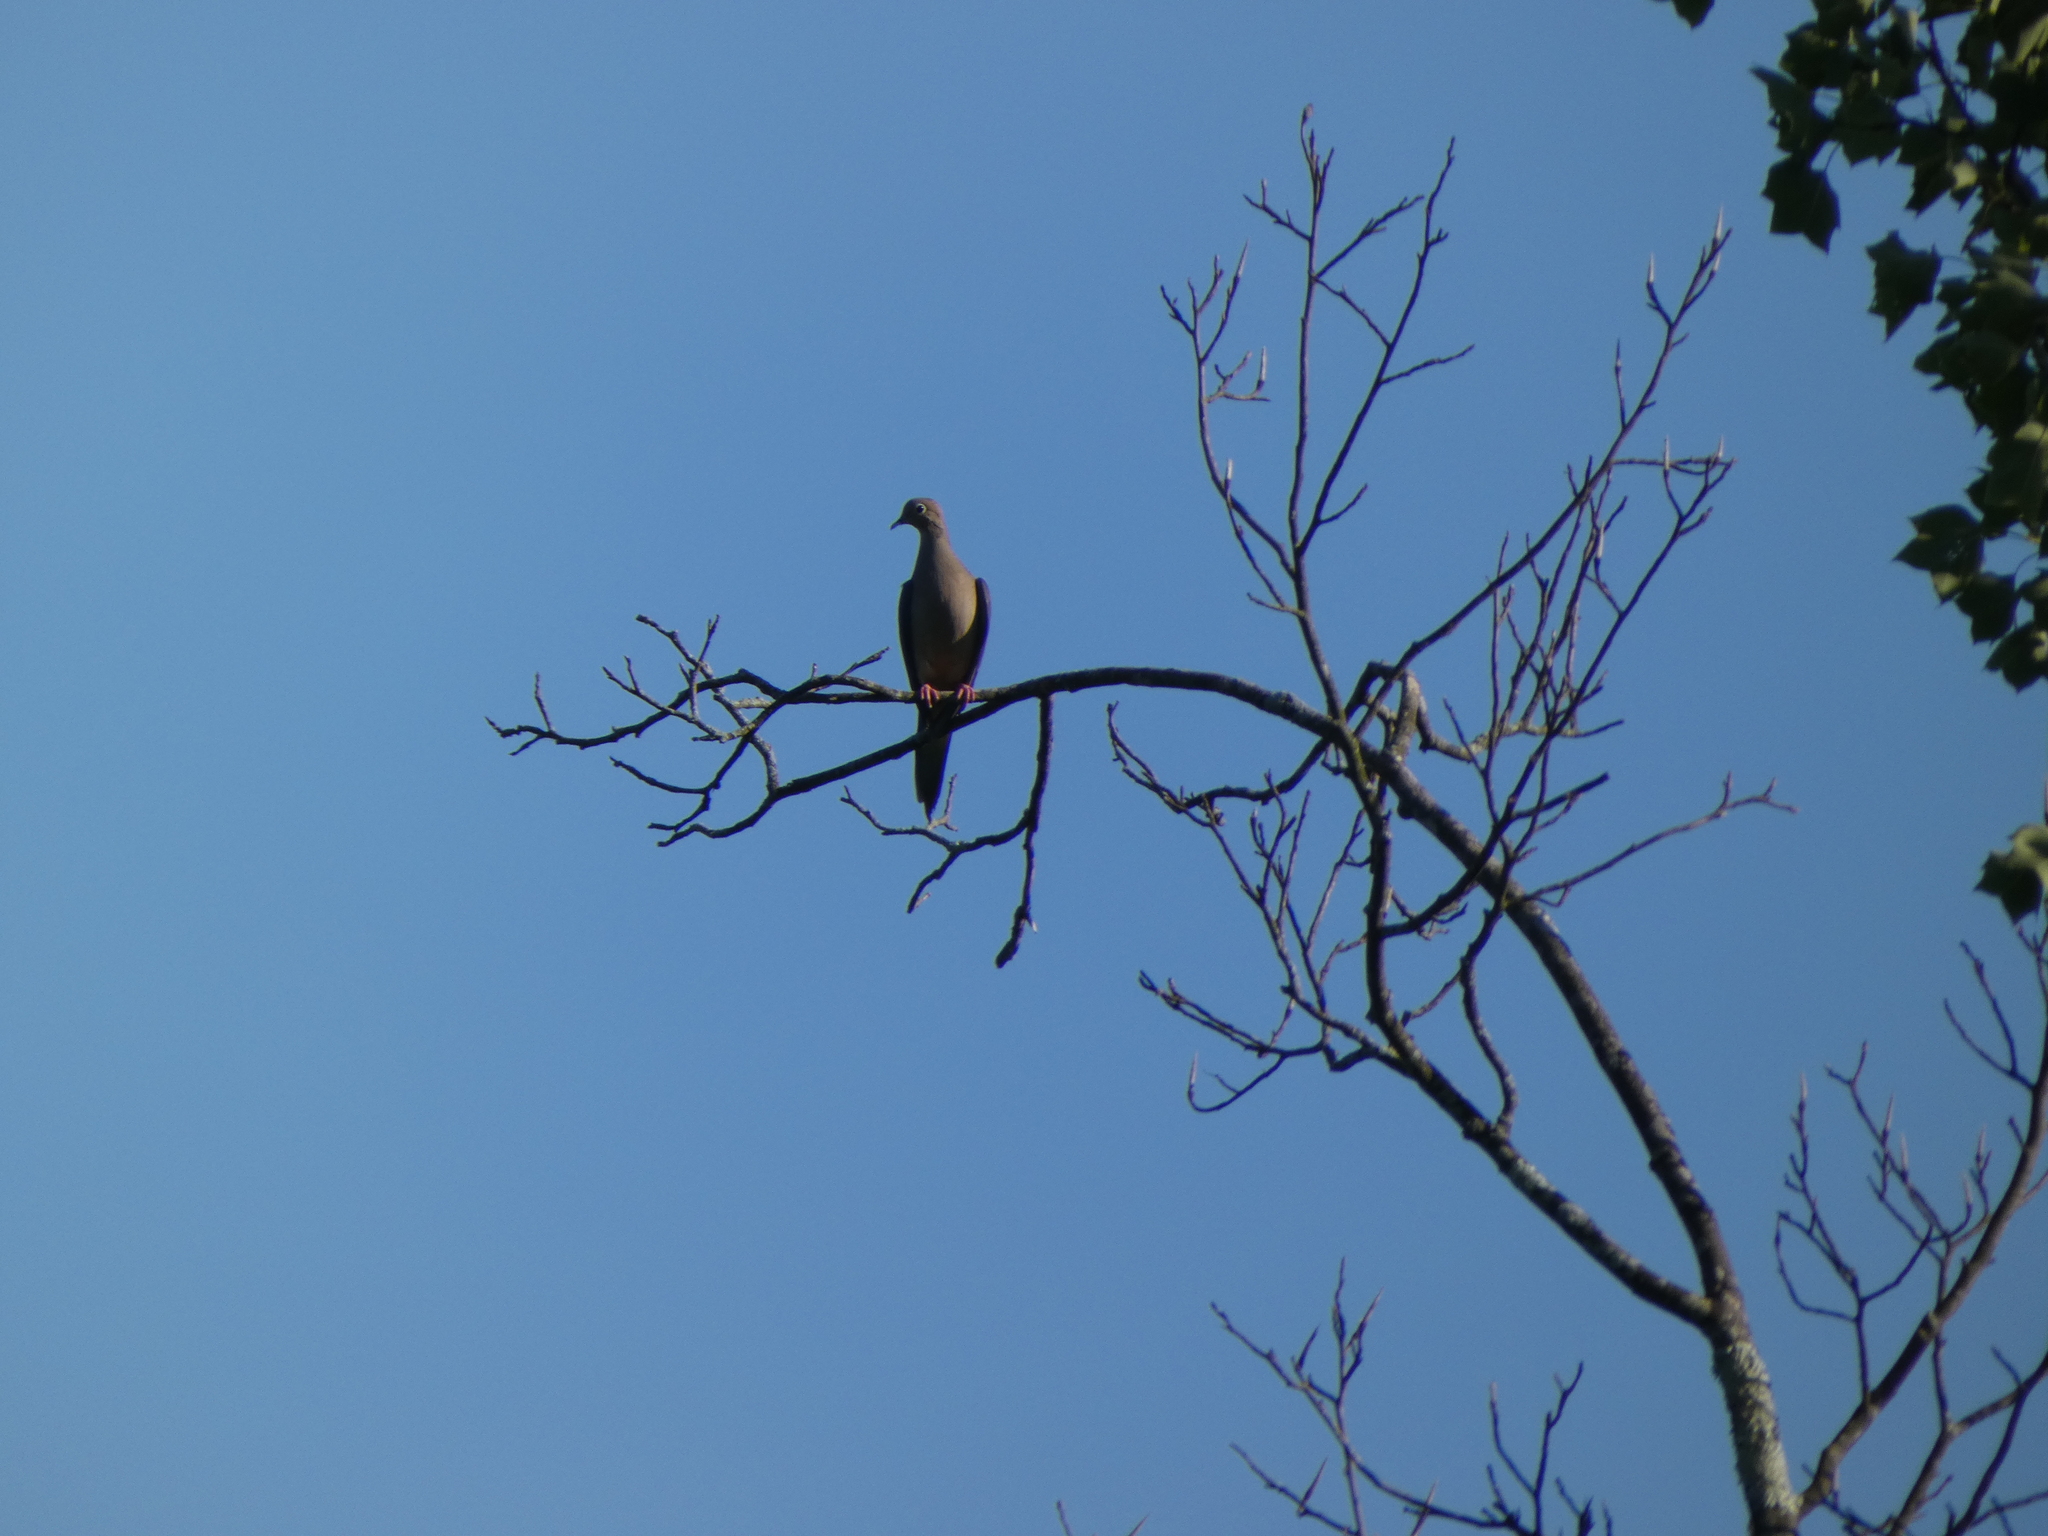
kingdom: Animalia
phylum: Chordata
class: Aves
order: Columbiformes
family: Columbidae
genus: Zenaida
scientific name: Zenaida macroura
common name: Mourning dove
